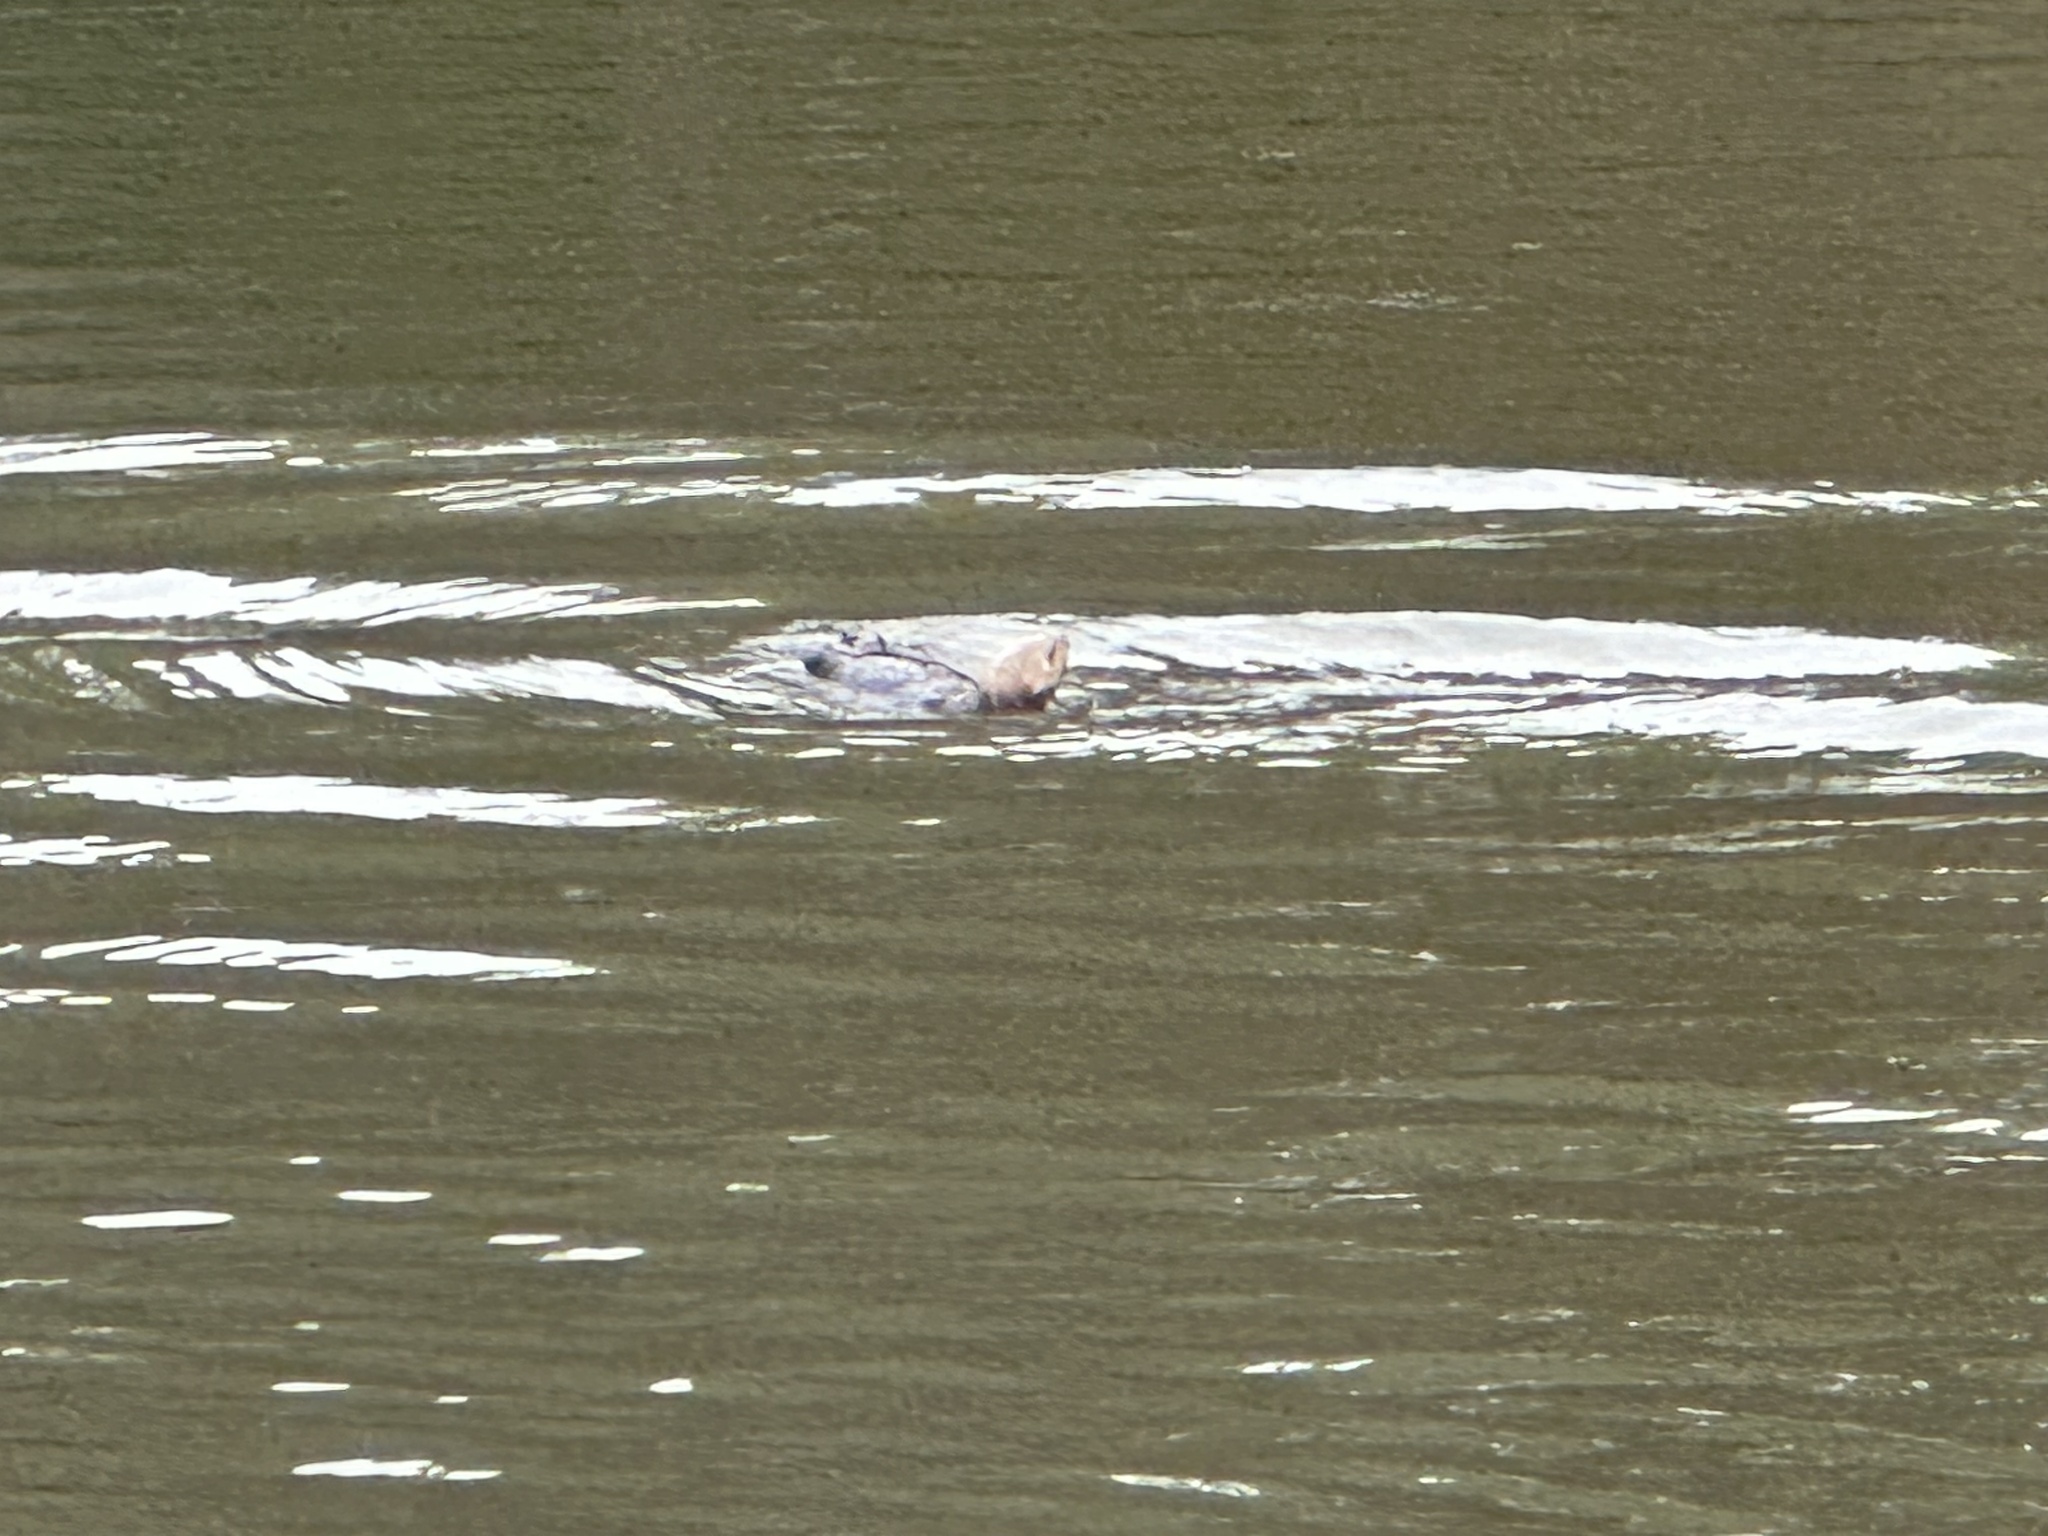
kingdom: Animalia
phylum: Chordata
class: Mammalia
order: Carnivora
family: Mustelidae
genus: Enhydra
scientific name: Enhydra lutris
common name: Sea otter
